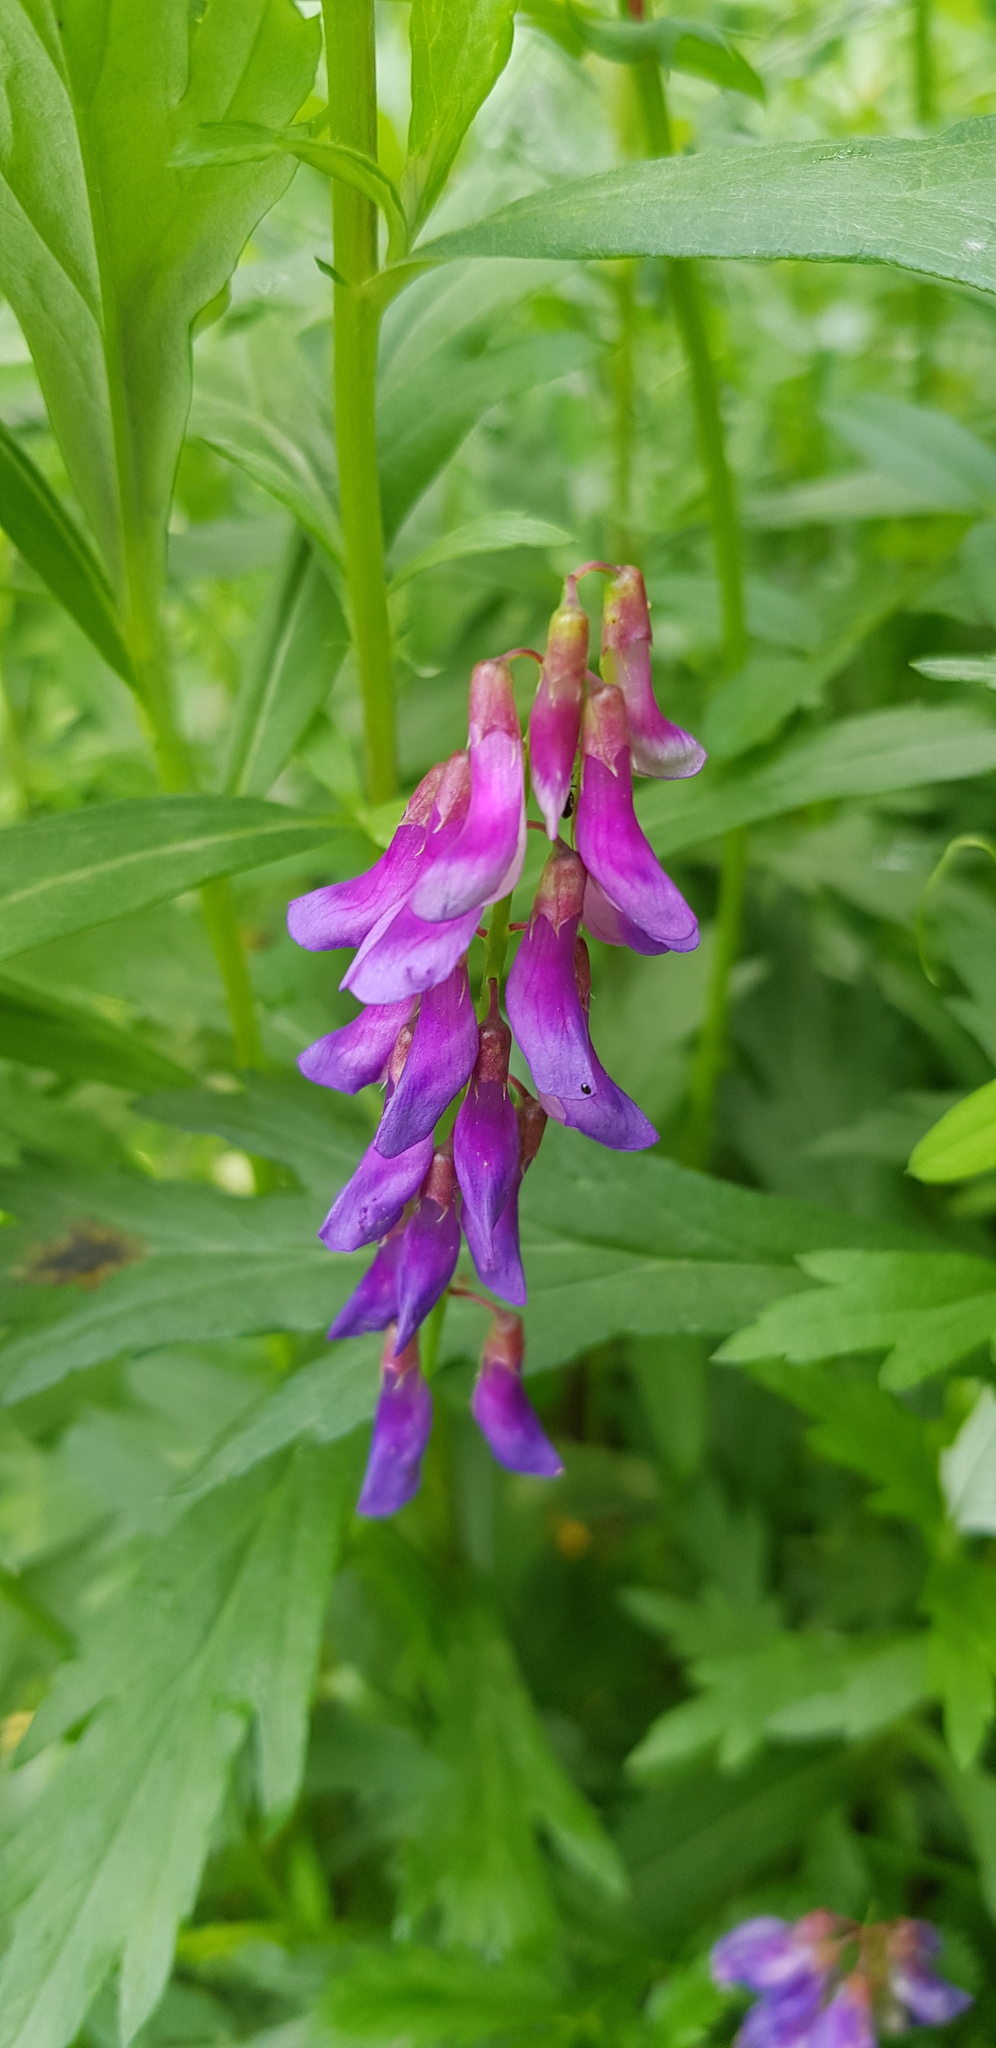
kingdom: Plantae
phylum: Tracheophyta
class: Magnoliopsida
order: Fabales
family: Fabaceae
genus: Vicia
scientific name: Vicia amoena
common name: Cheder ebs
